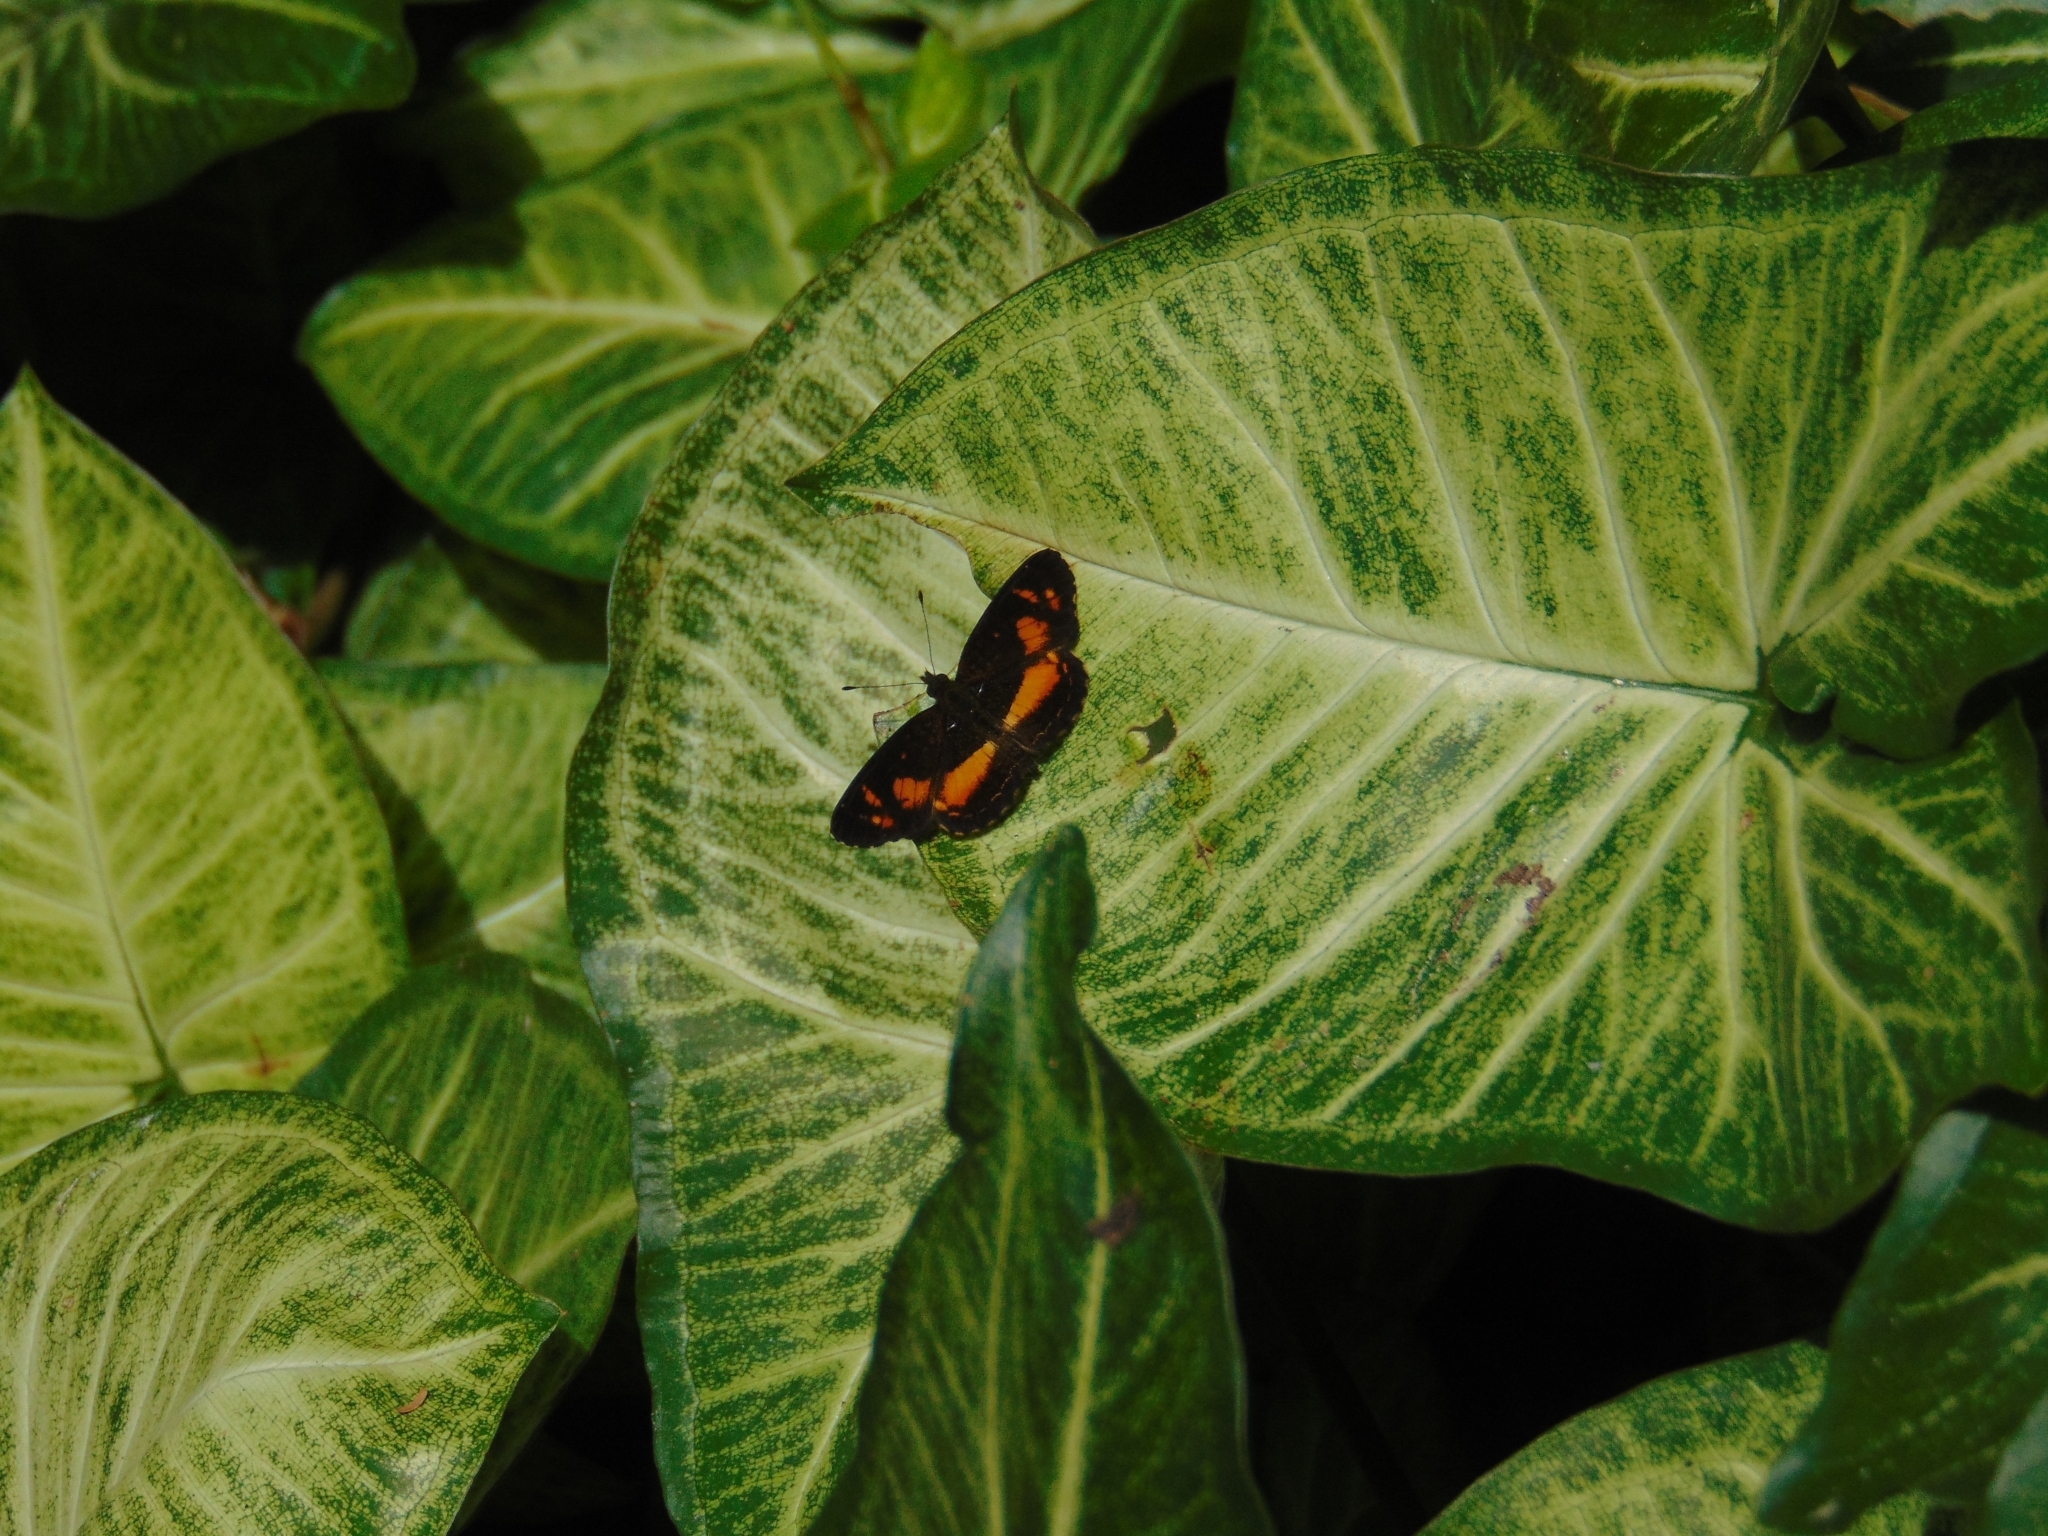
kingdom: Animalia
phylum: Arthropoda
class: Insecta
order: Lepidoptera
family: Nymphalidae
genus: Telenassa
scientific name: Telenassa teletusa
